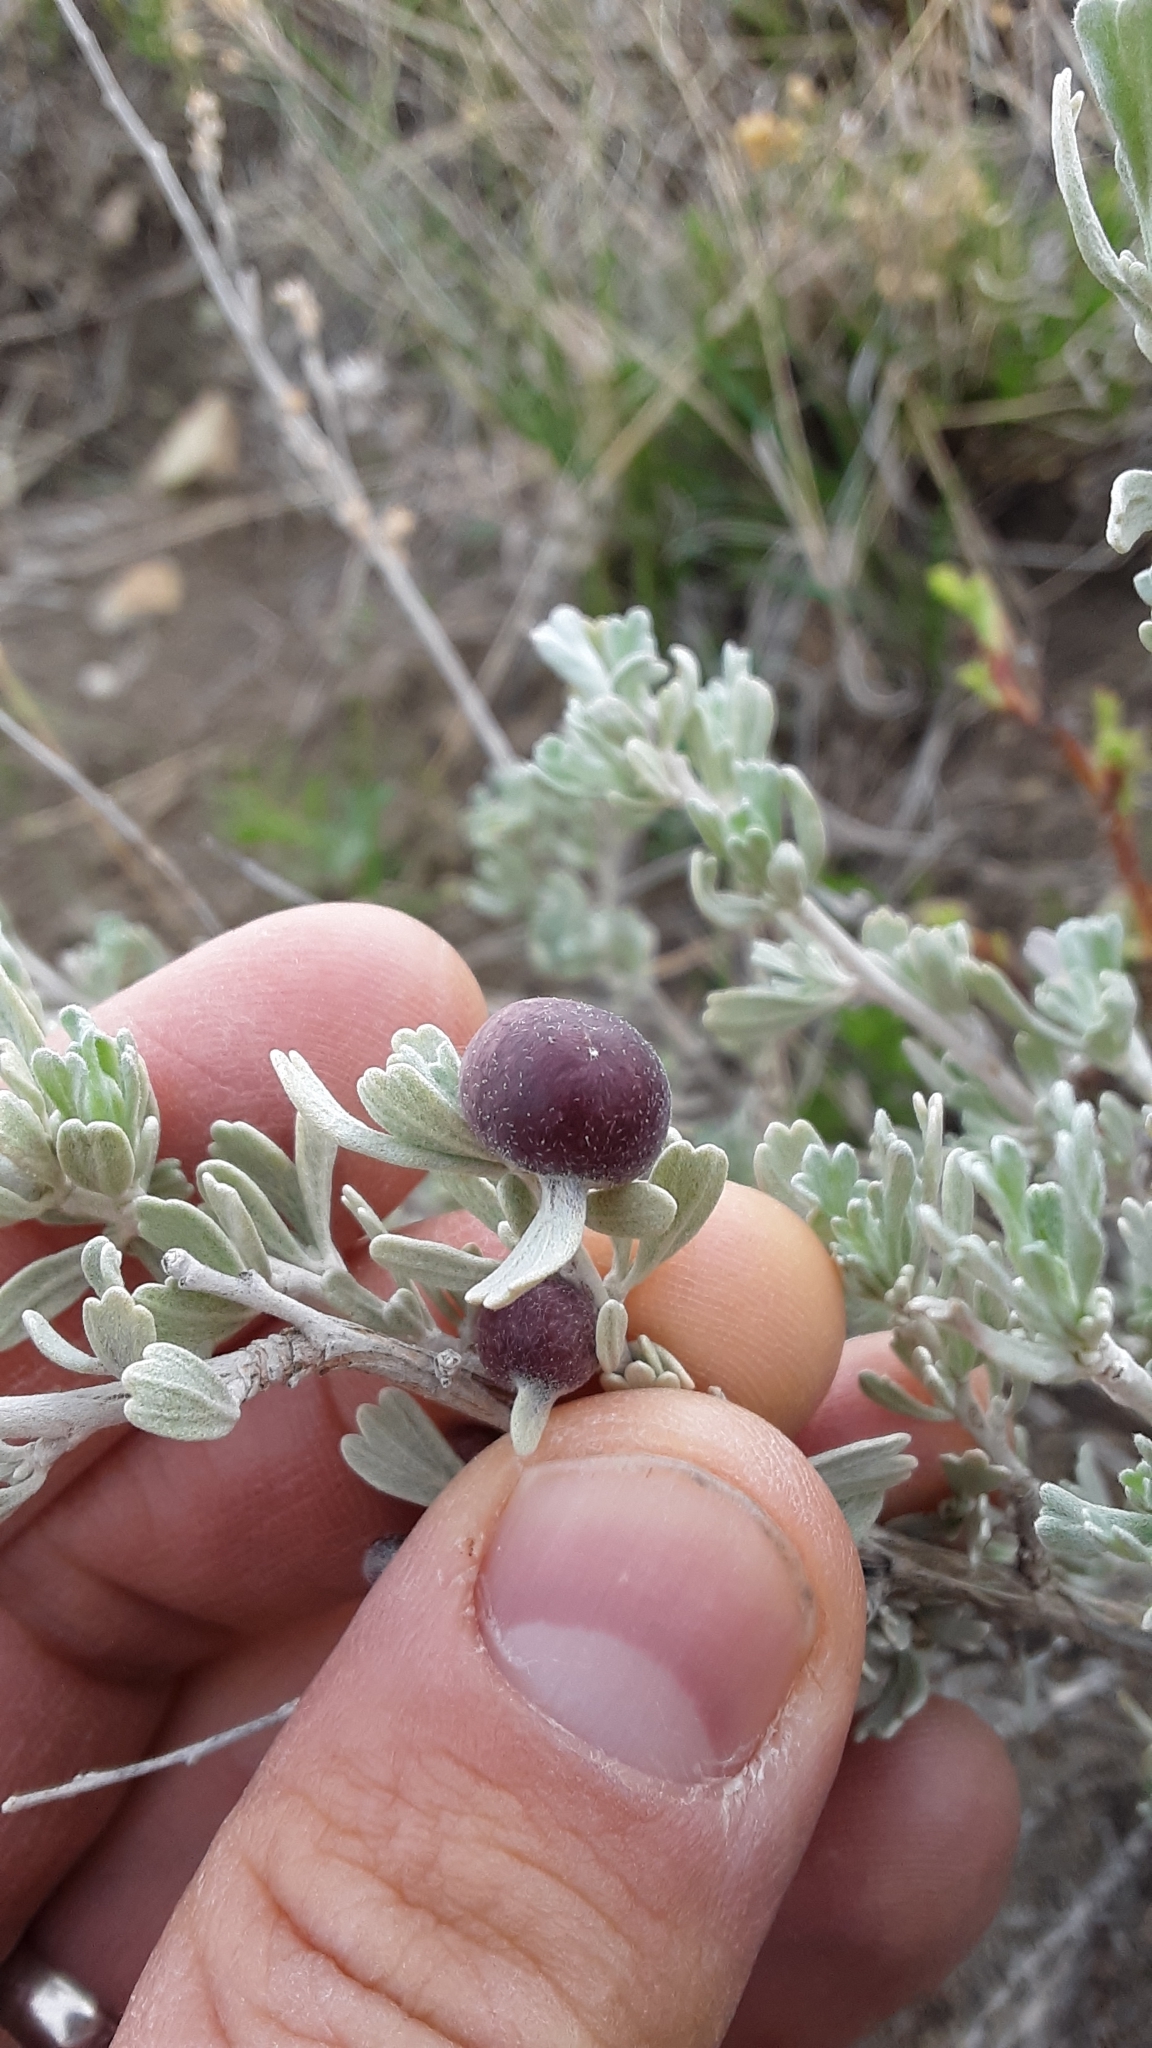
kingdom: Animalia
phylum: Arthropoda
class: Insecta
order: Diptera
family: Cecidomyiidae
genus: Rhopalomyia
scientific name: Rhopalomyia calvipomum
